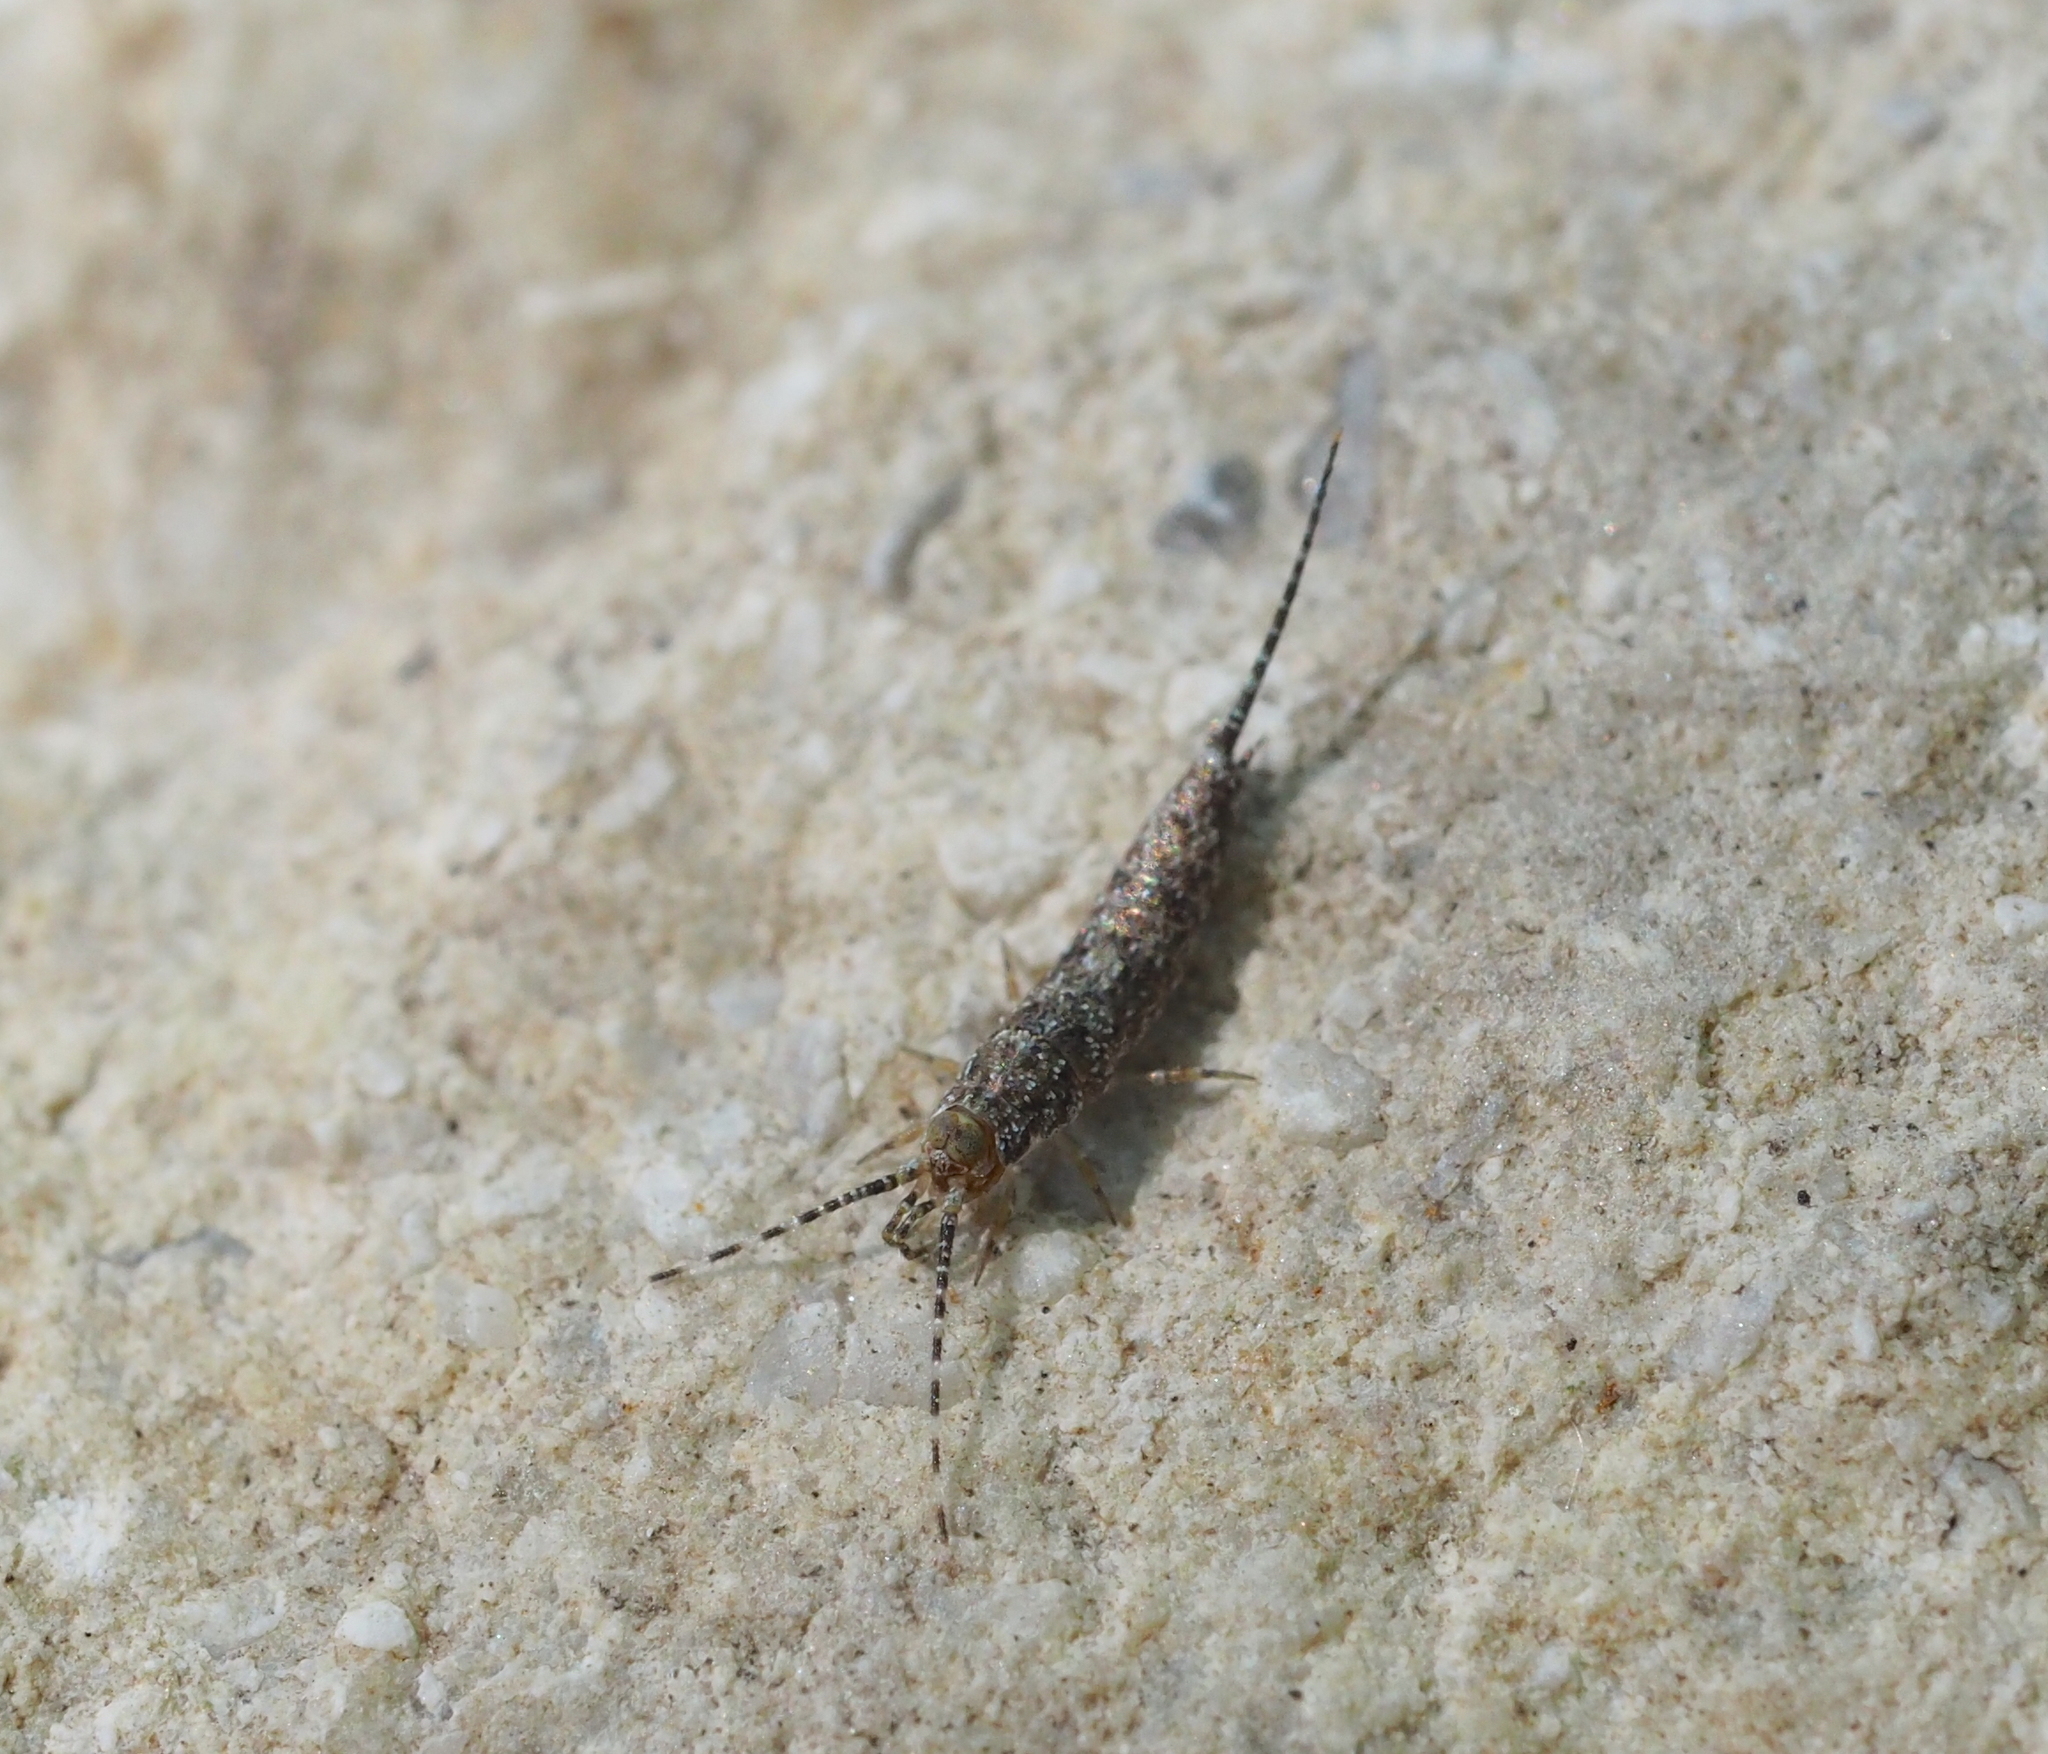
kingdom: Animalia
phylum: Arthropoda
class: Insecta
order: Archaeognatha
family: Machilidae
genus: Machilis
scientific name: Machilis helleri
